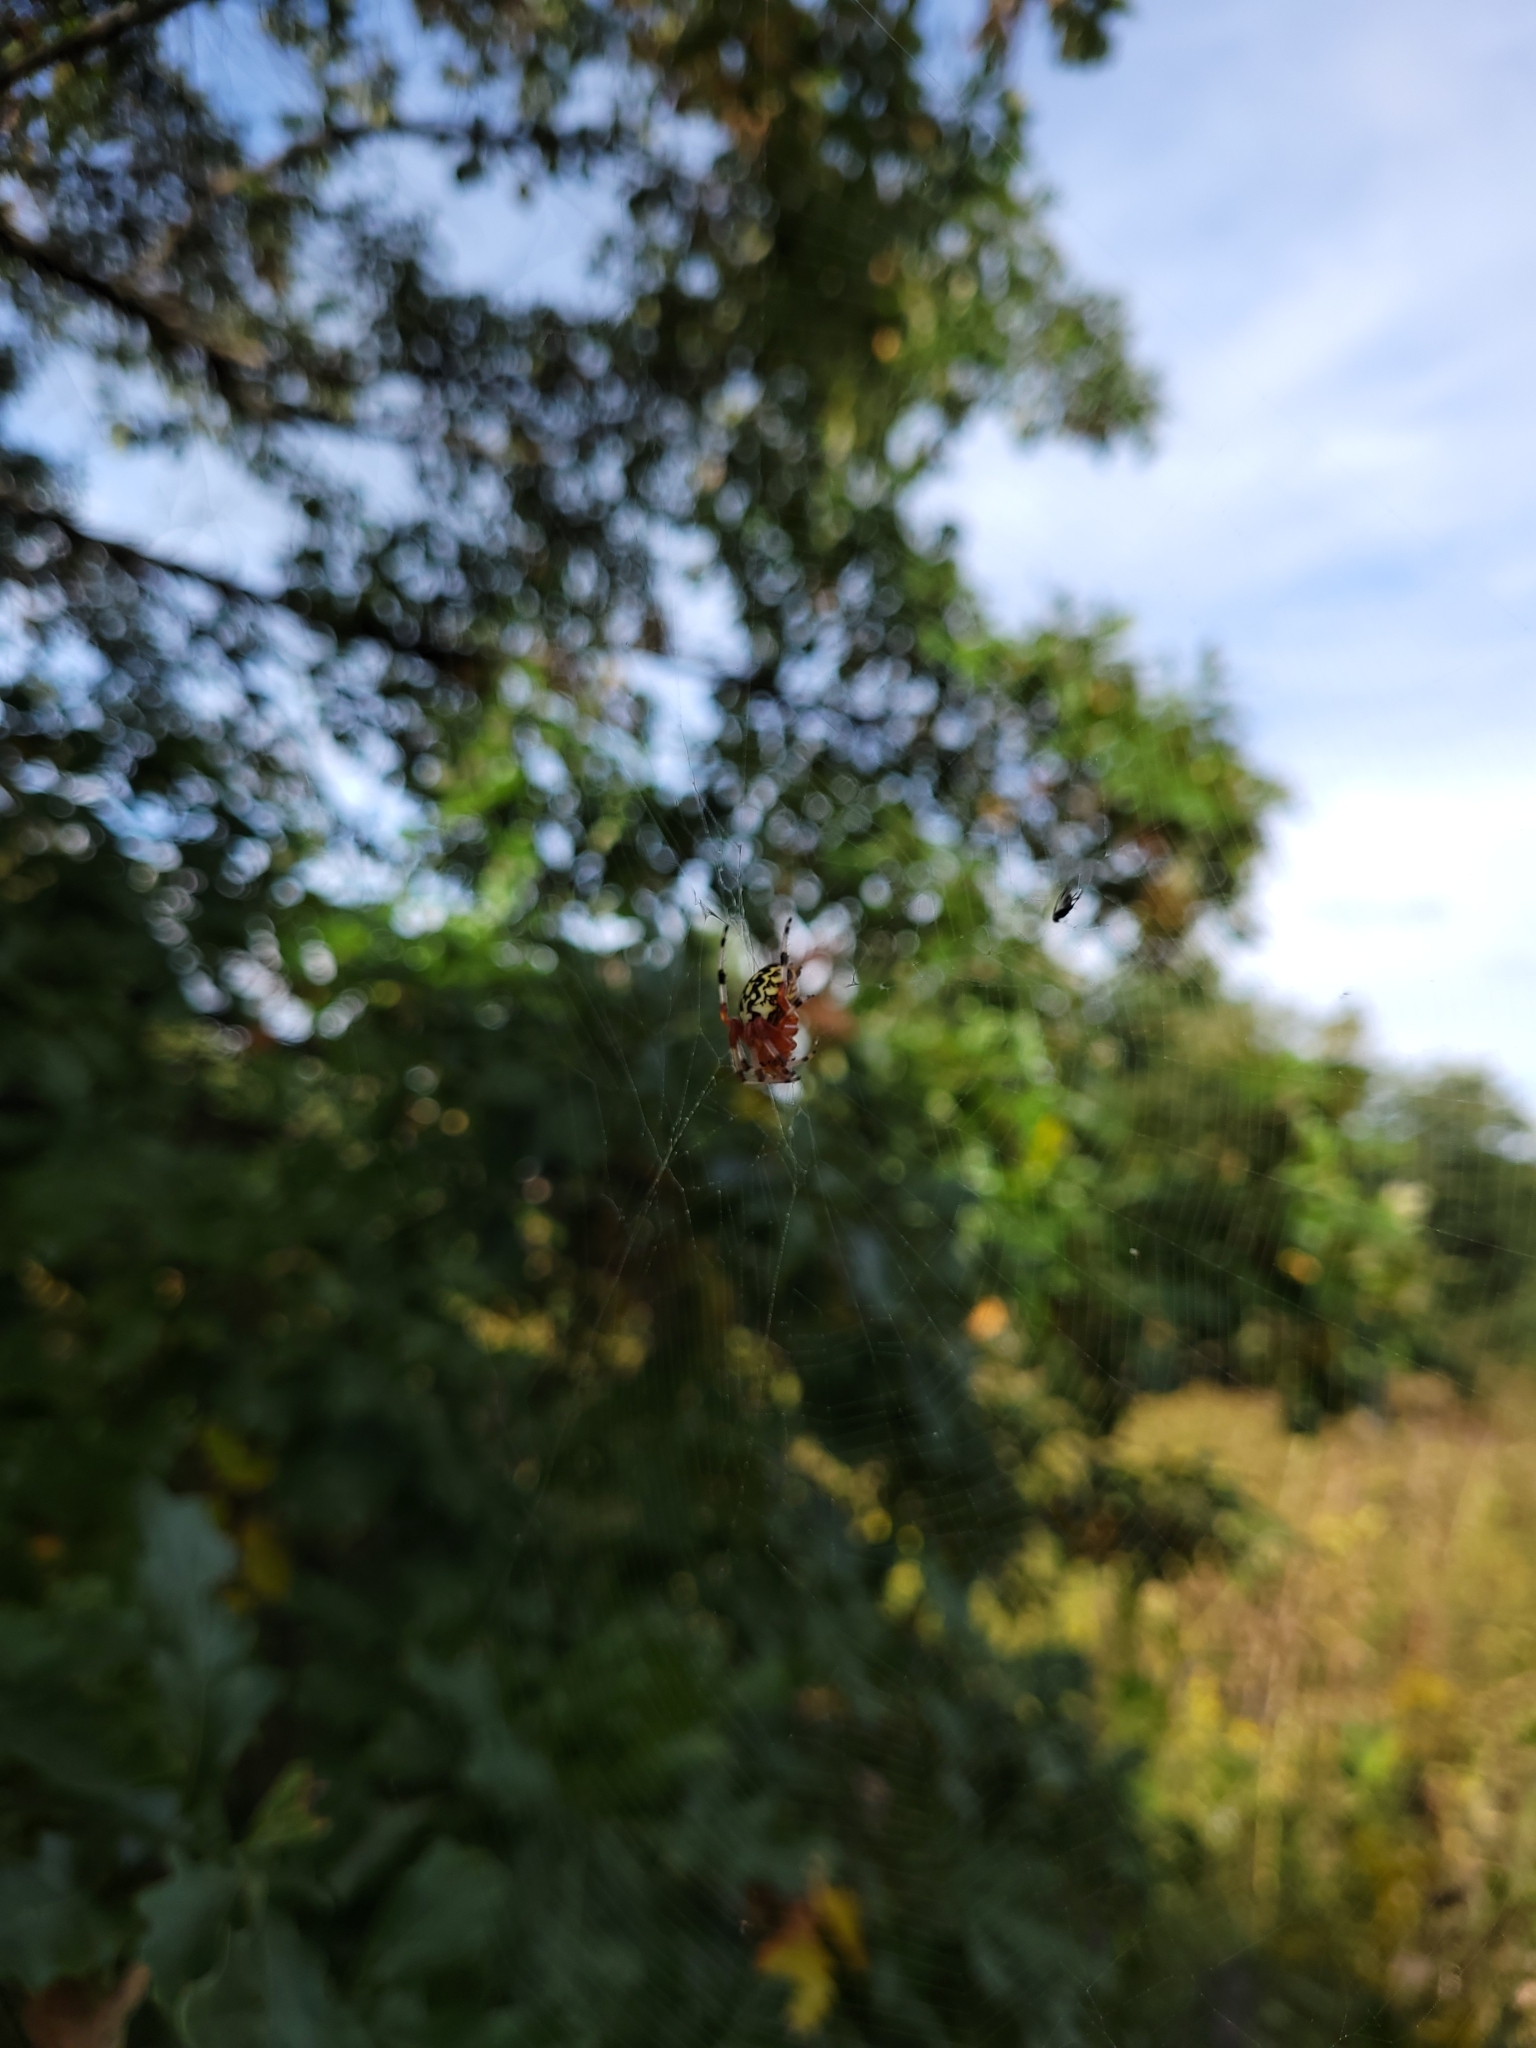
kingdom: Animalia
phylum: Arthropoda
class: Arachnida
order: Araneae
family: Araneidae
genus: Araneus
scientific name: Araneus marmoreus
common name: Marbled orbweaver
